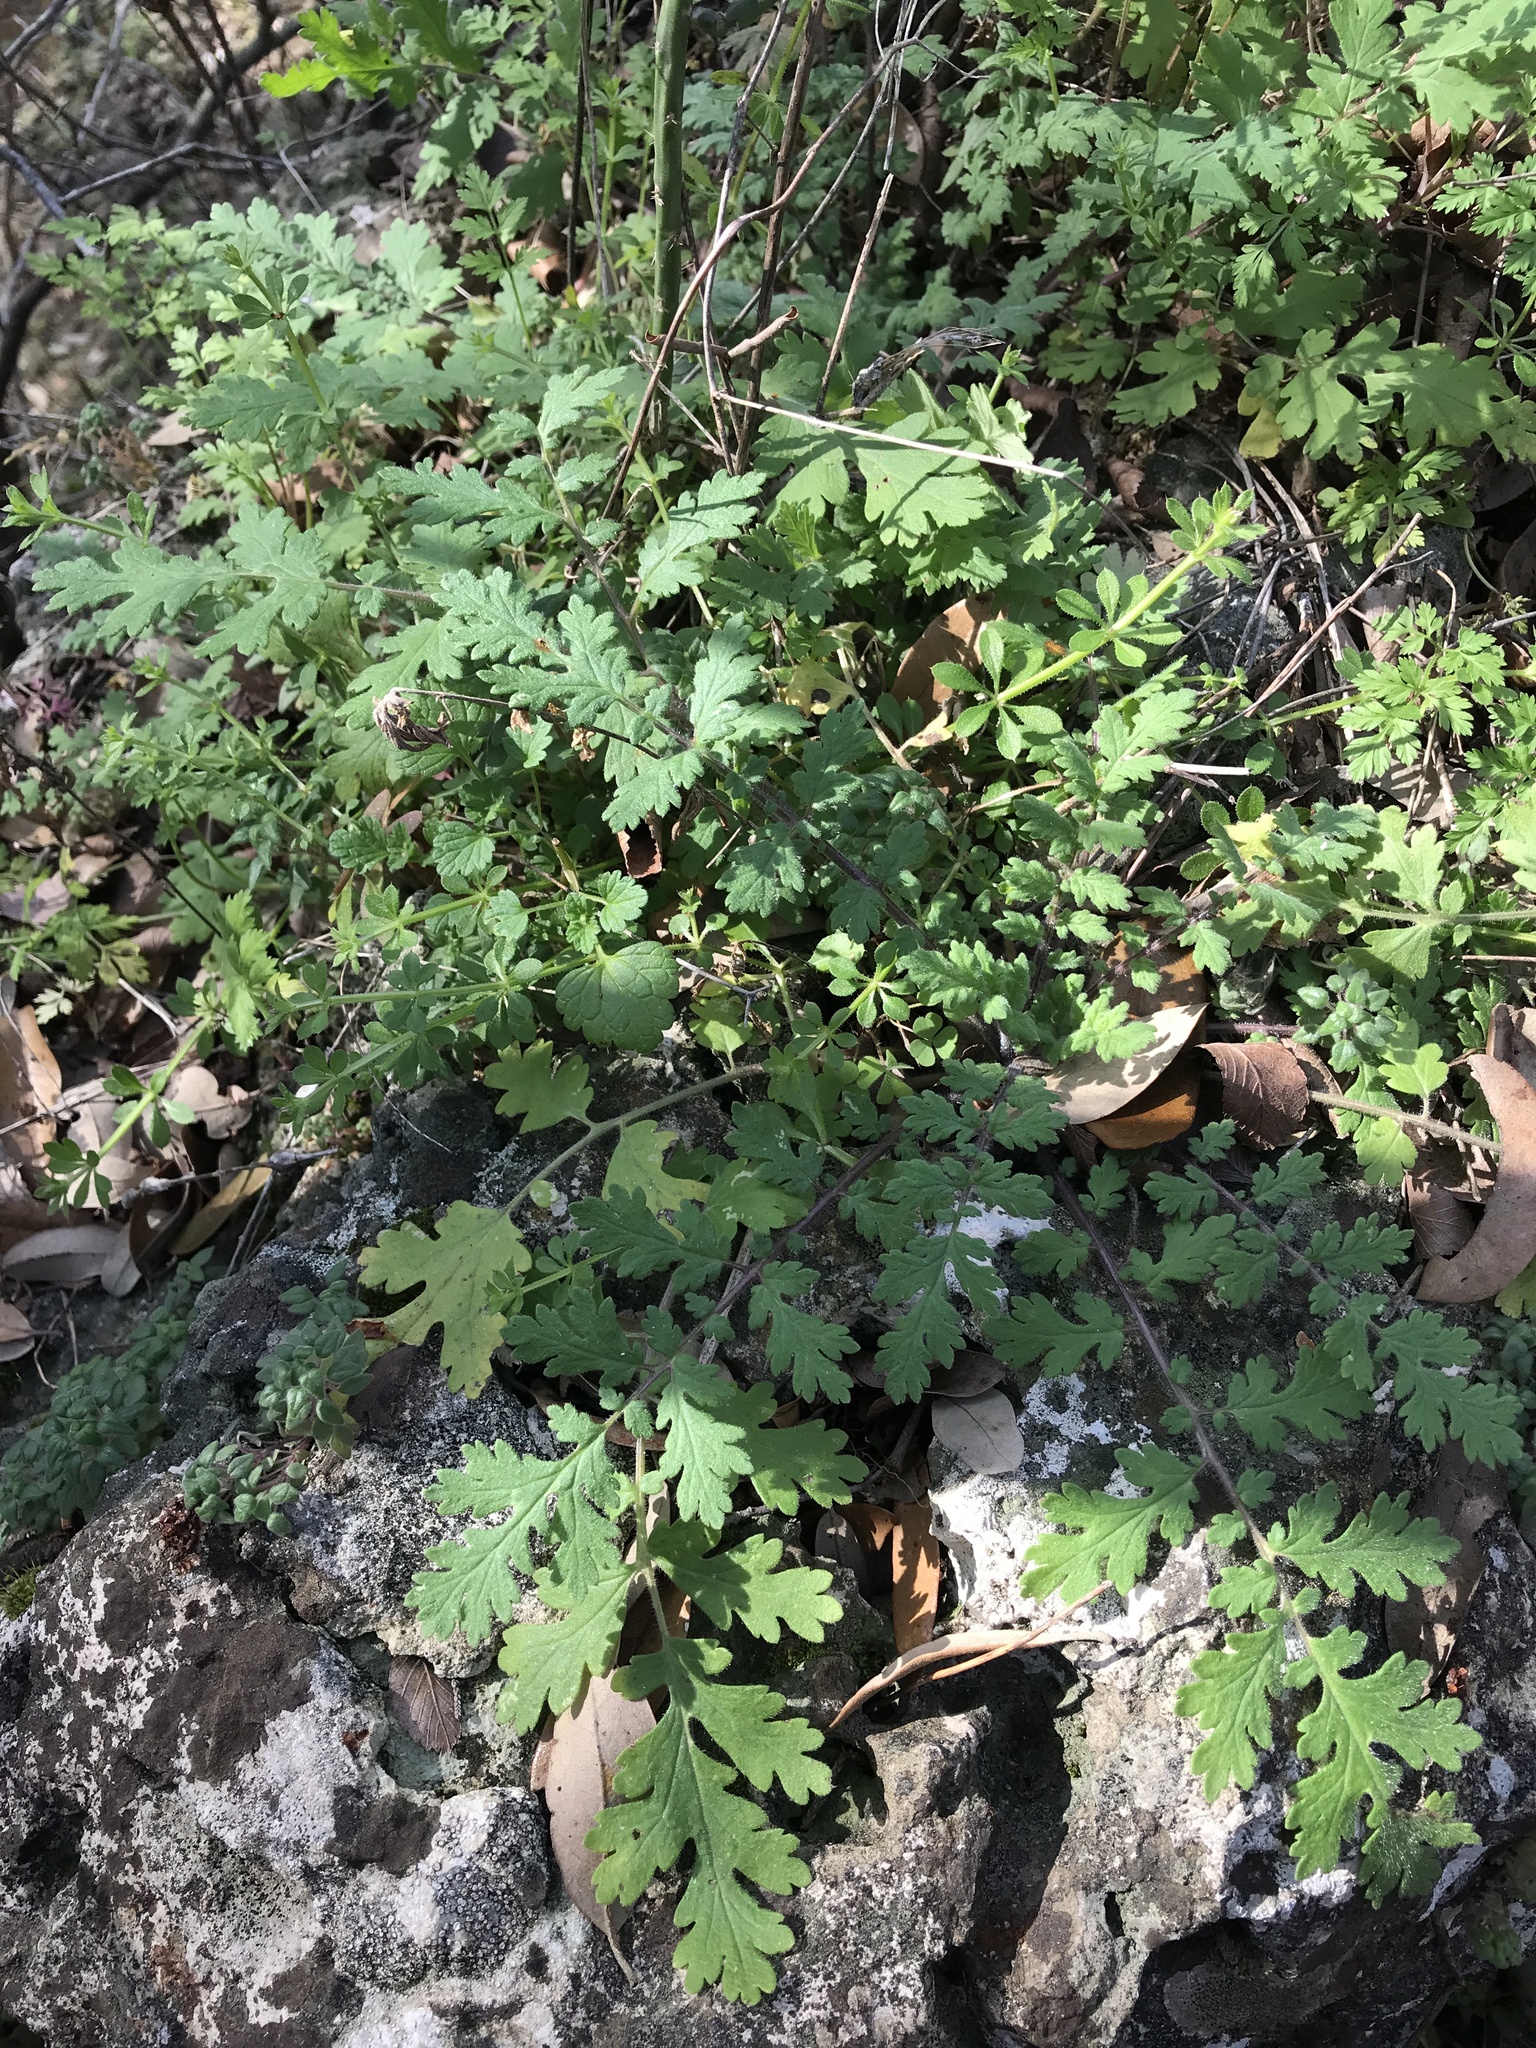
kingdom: Plantae
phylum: Tracheophyta
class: Magnoliopsida
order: Boraginales
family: Hydrophyllaceae
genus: Phacelia
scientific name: Phacelia congesta
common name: Blue curls
